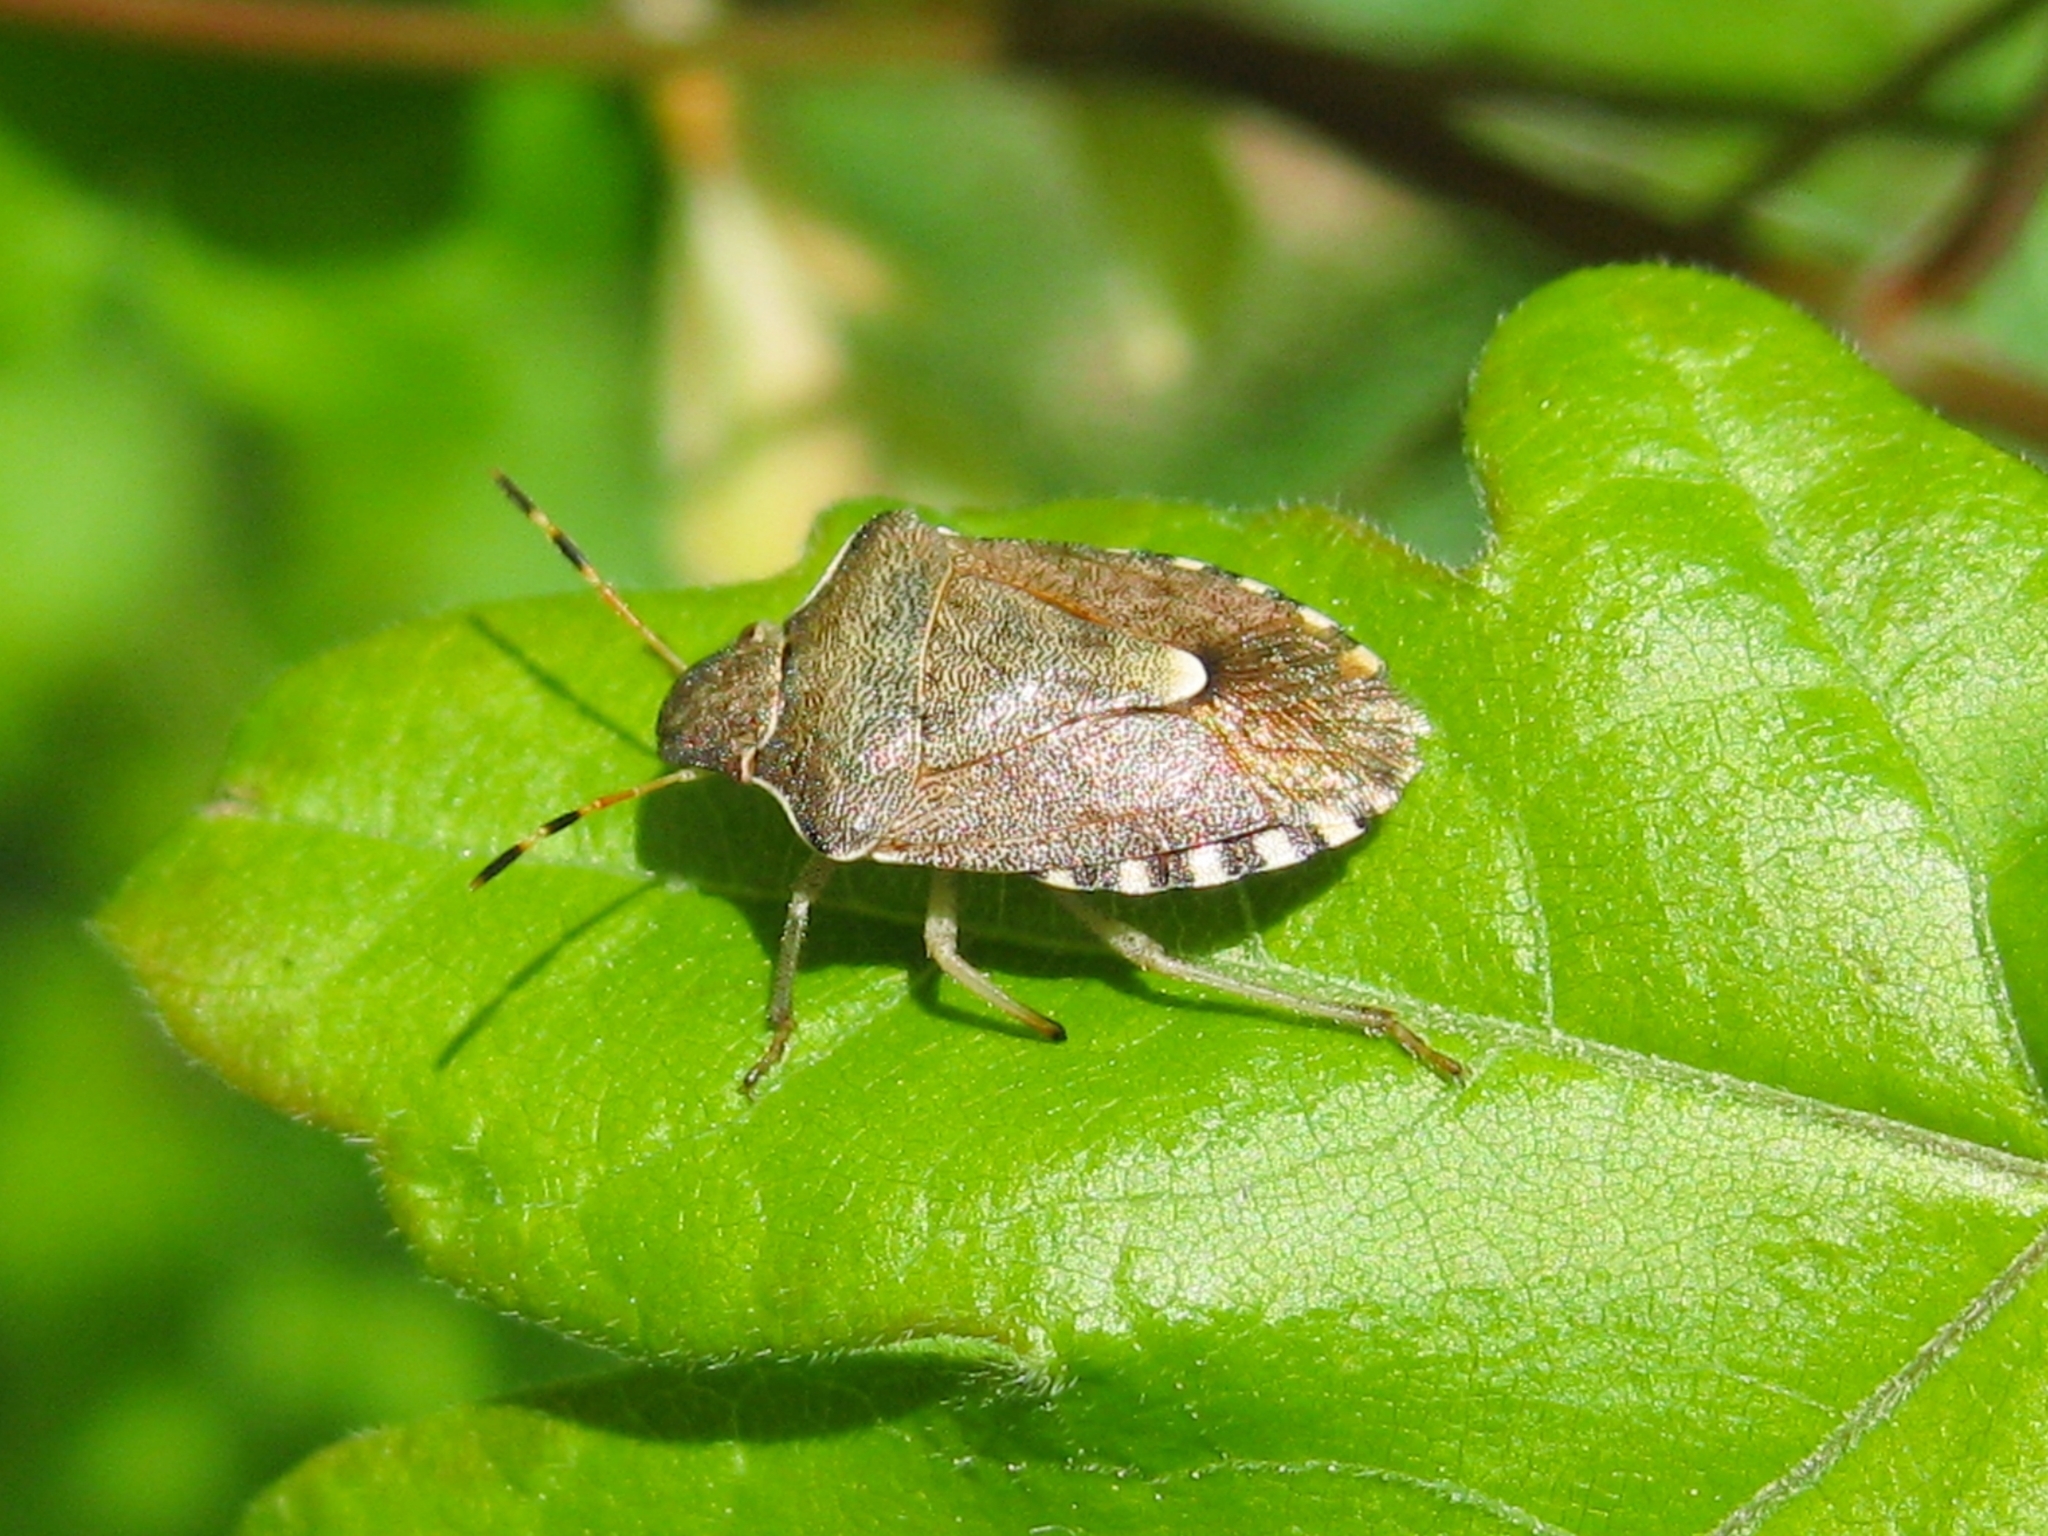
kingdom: Animalia
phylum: Arthropoda
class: Insecta
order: Hemiptera
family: Pentatomidae
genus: Holcostethus
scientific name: Holcostethus strictus
